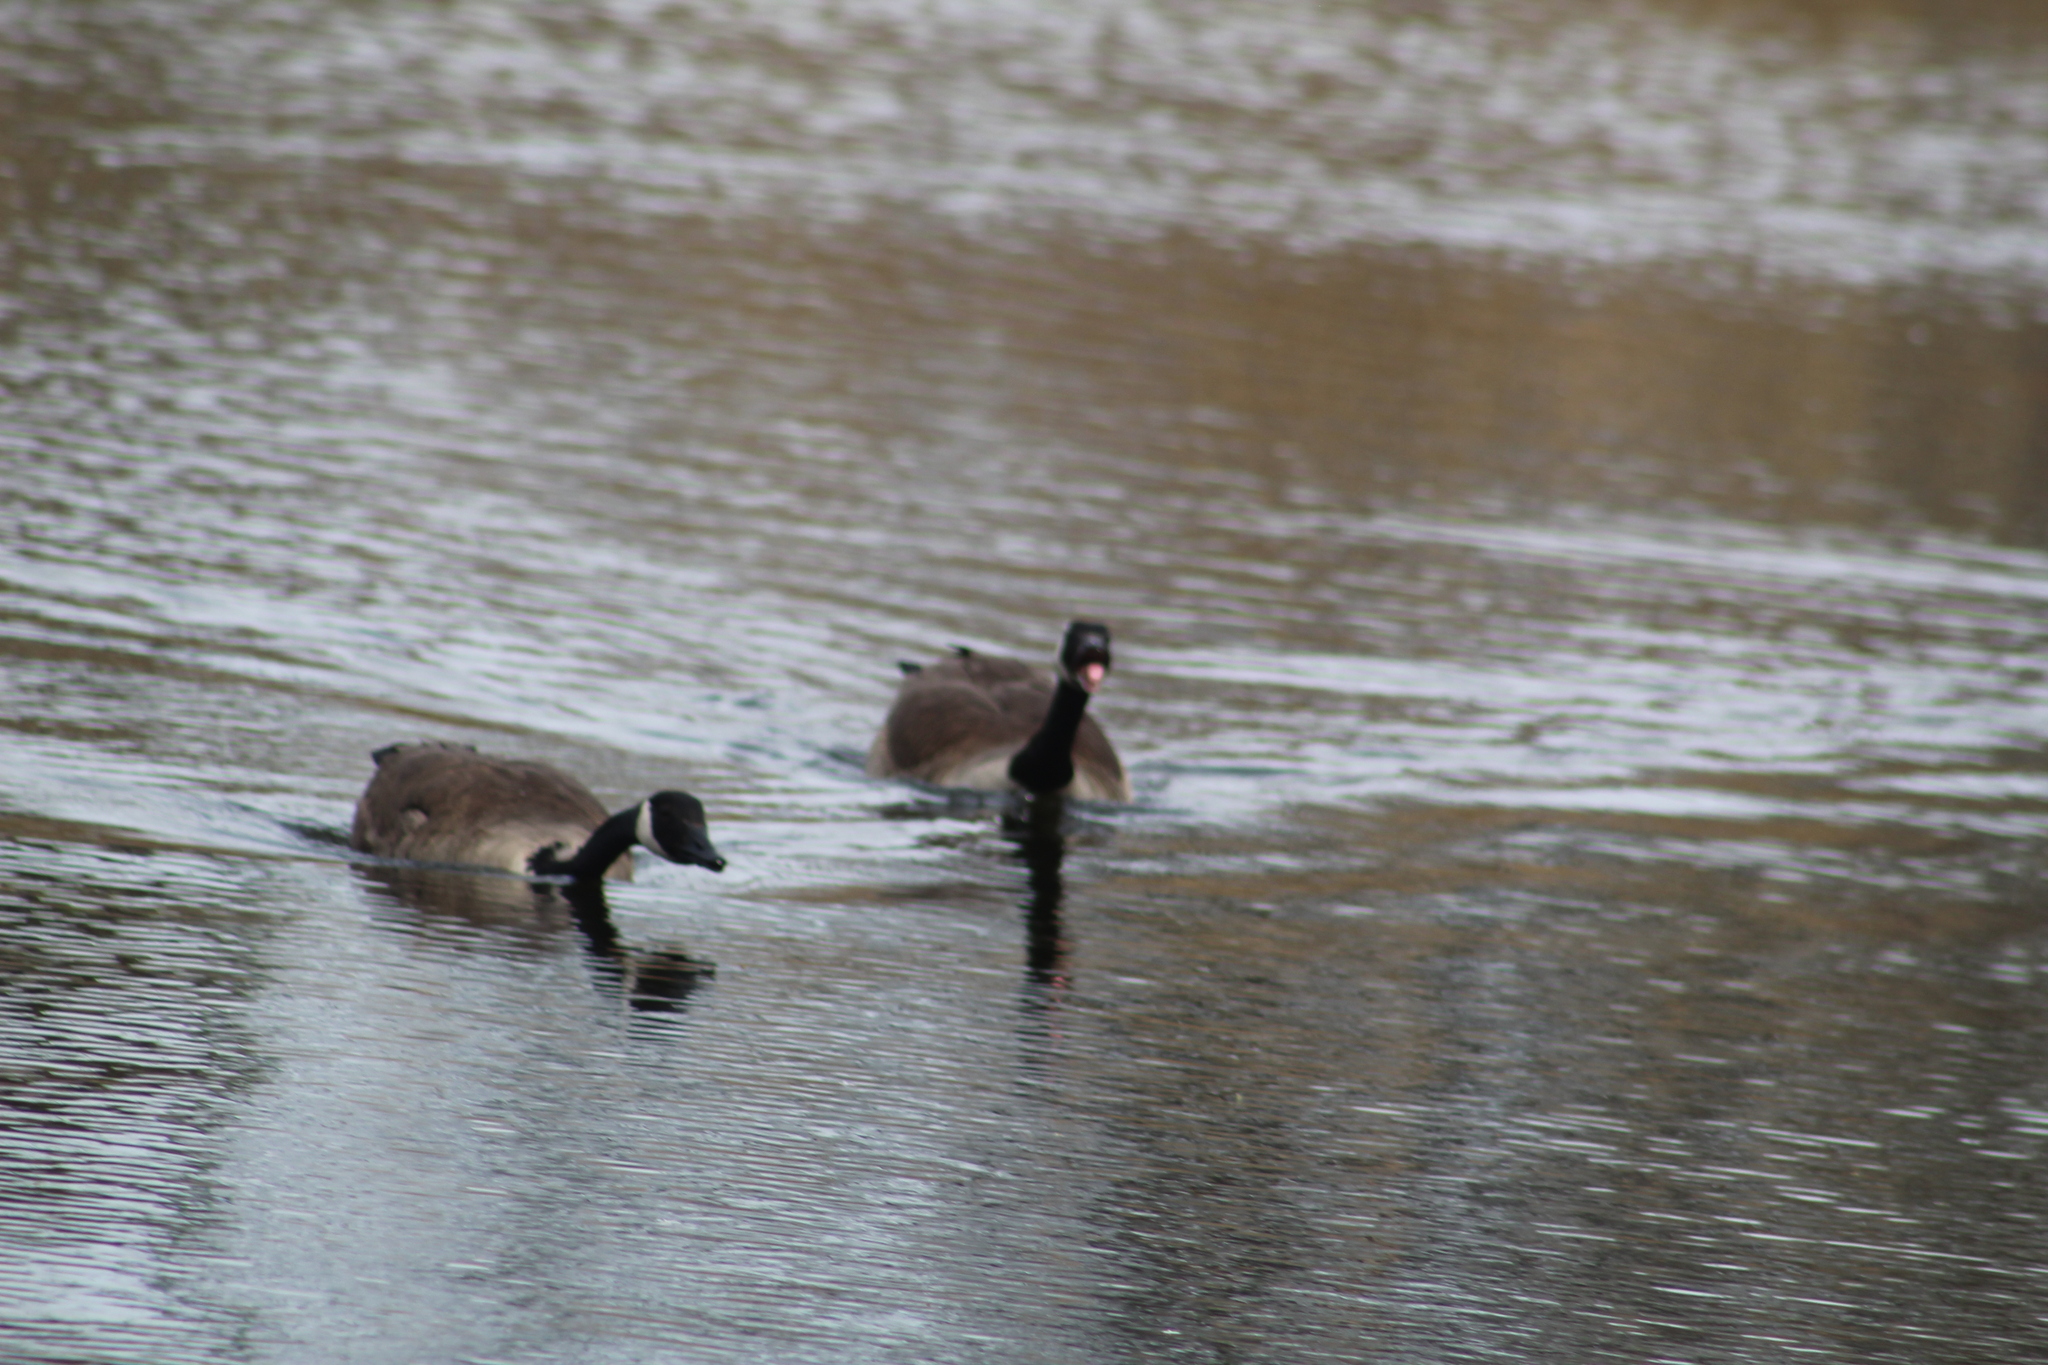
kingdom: Animalia
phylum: Chordata
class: Aves
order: Anseriformes
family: Anatidae
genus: Branta
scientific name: Branta canadensis
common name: Canada goose
